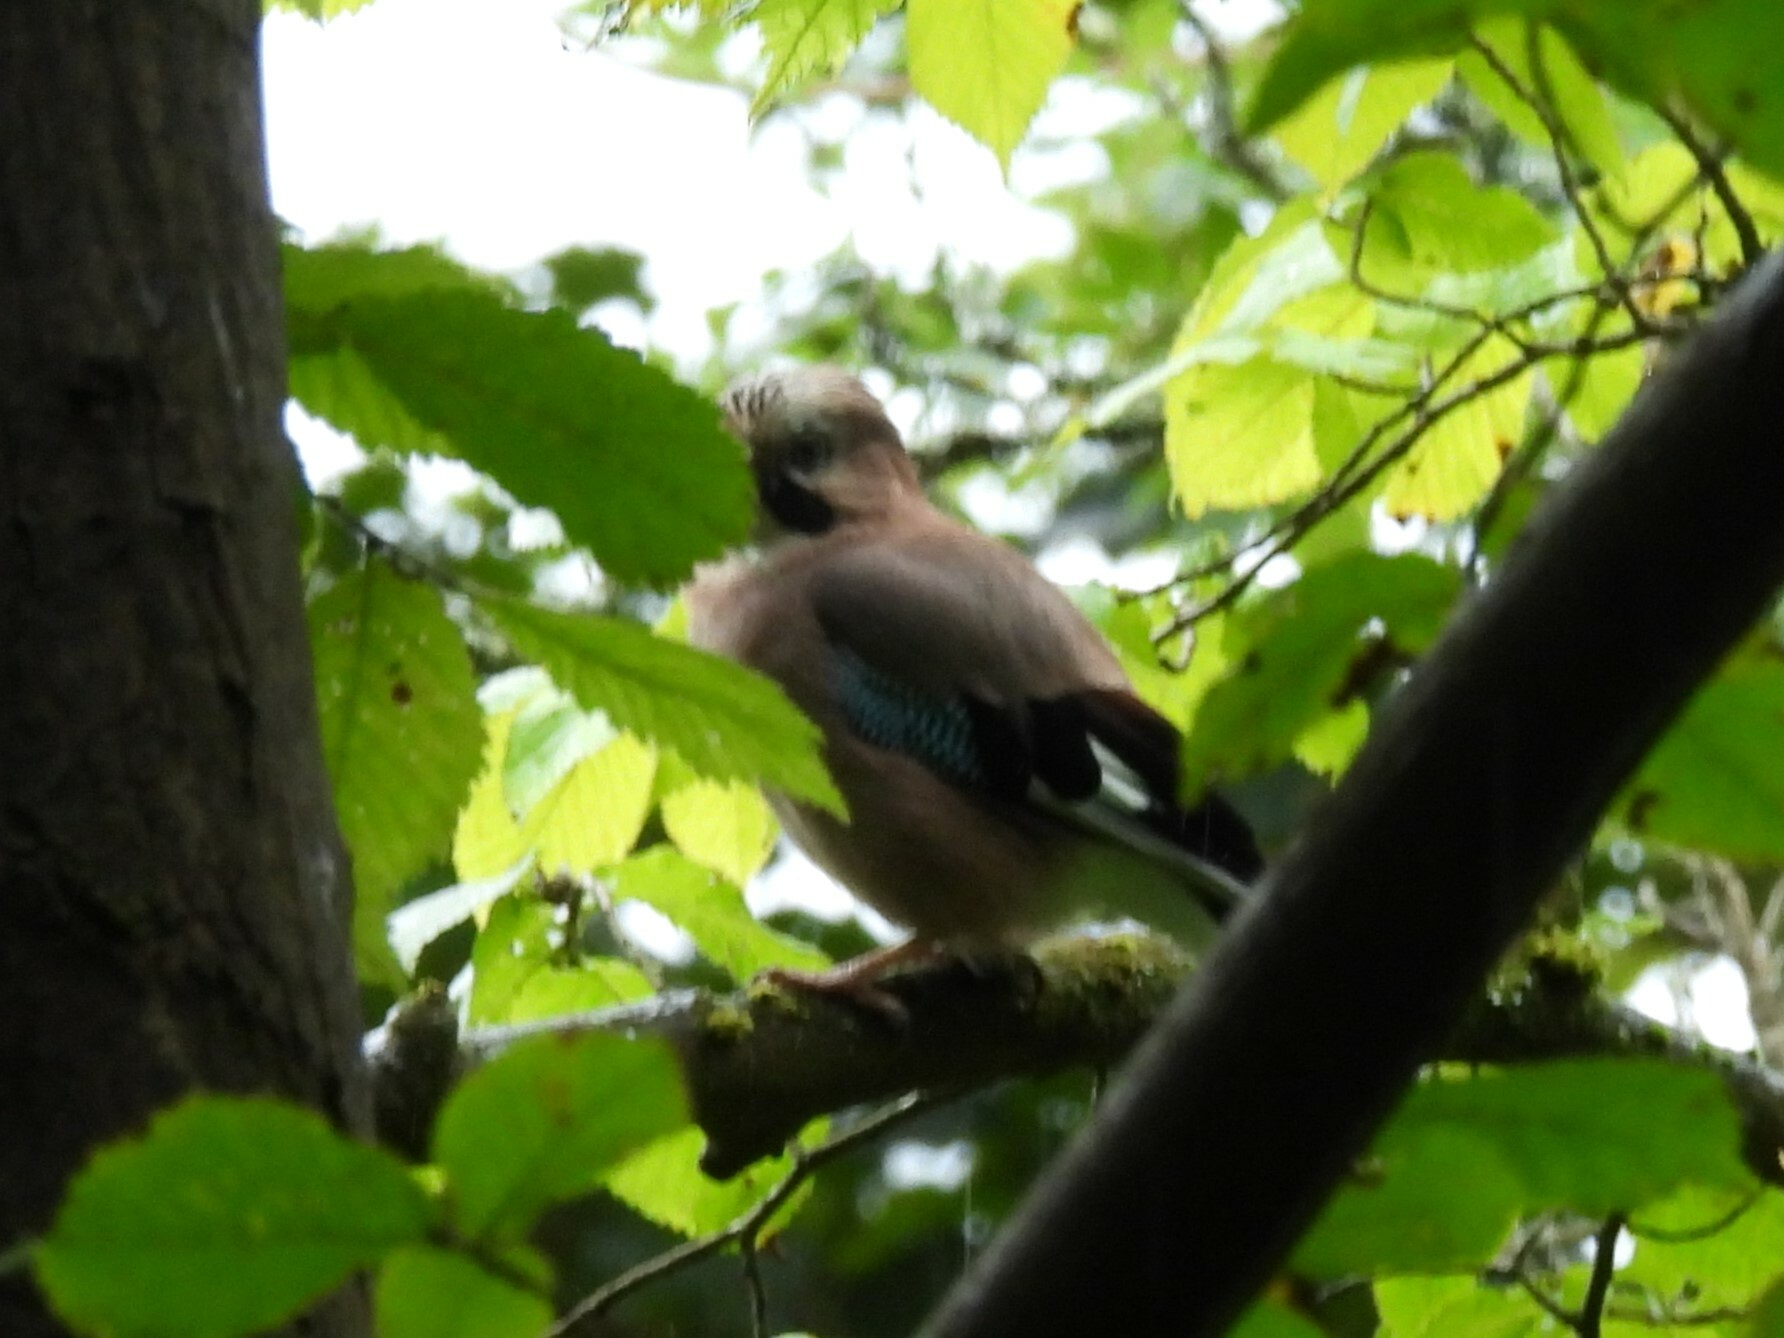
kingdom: Animalia
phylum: Chordata
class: Aves
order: Passeriformes
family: Corvidae
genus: Garrulus
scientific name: Garrulus glandarius
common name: Eurasian jay
